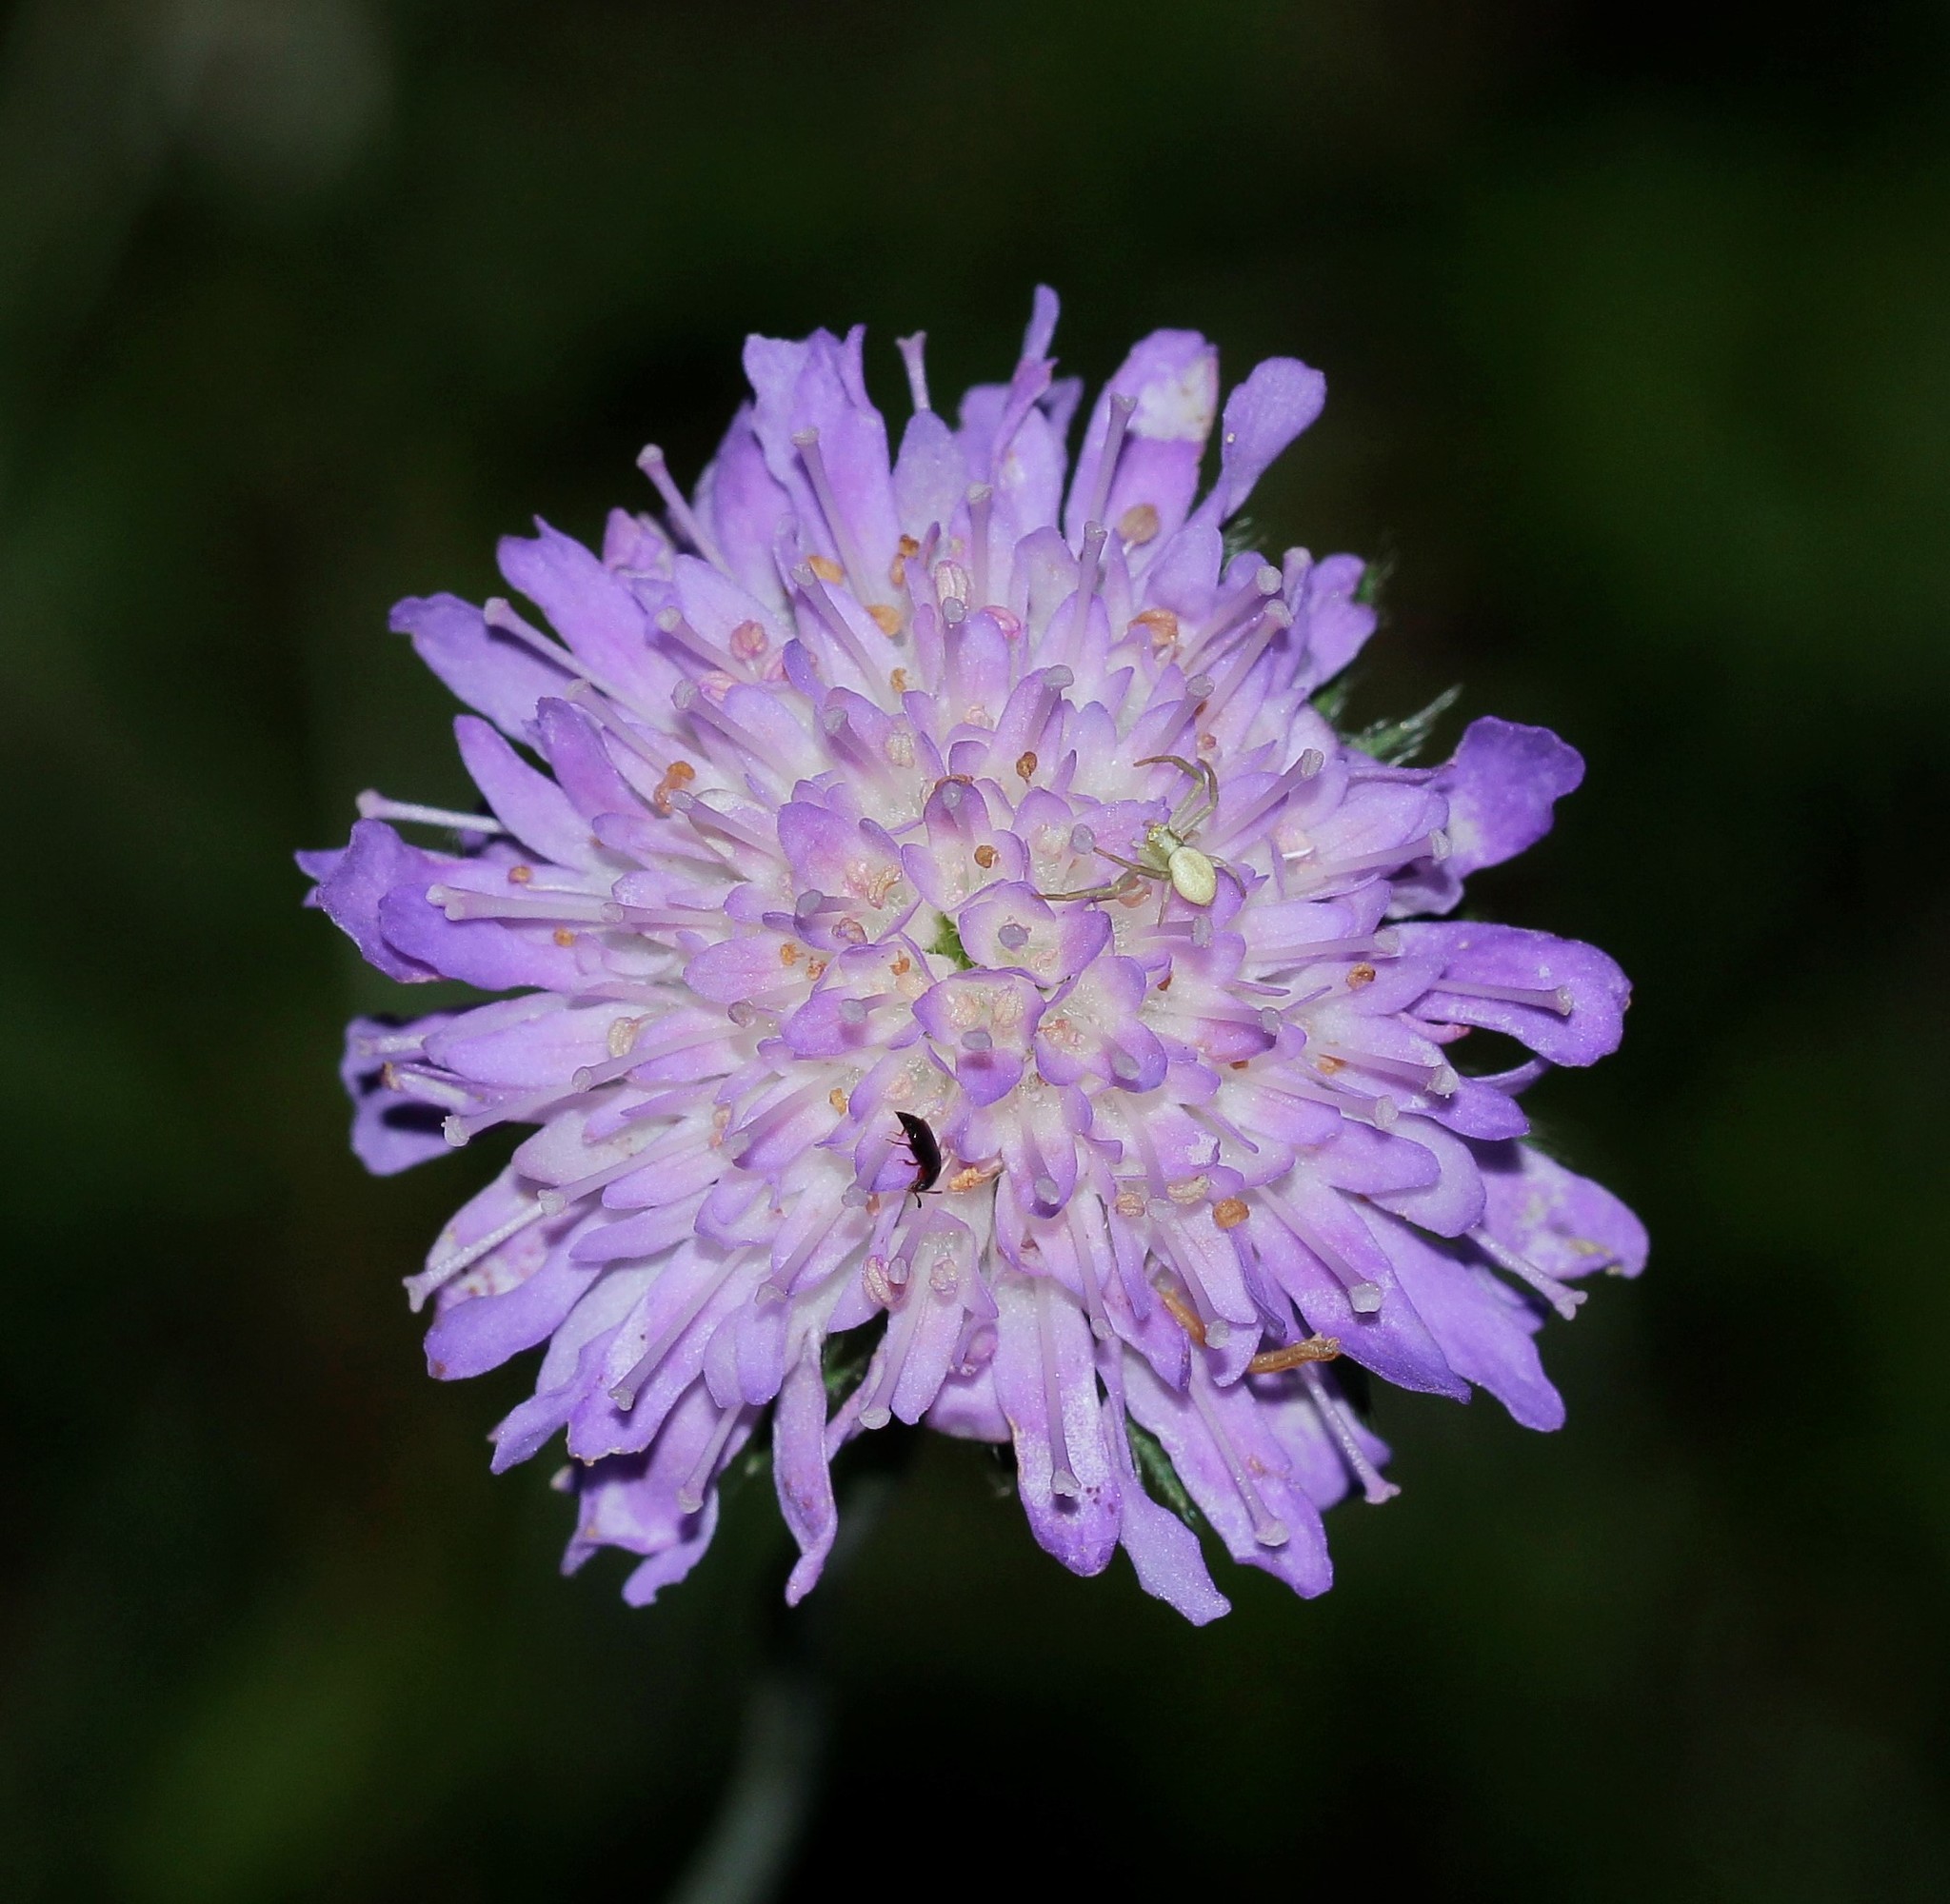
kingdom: Plantae
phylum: Tracheophyta
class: Magnoliopsida
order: Dipsacales
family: Caprifoliaceae
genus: Knautia
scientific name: Knautia arvensis
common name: Field scabiosa
